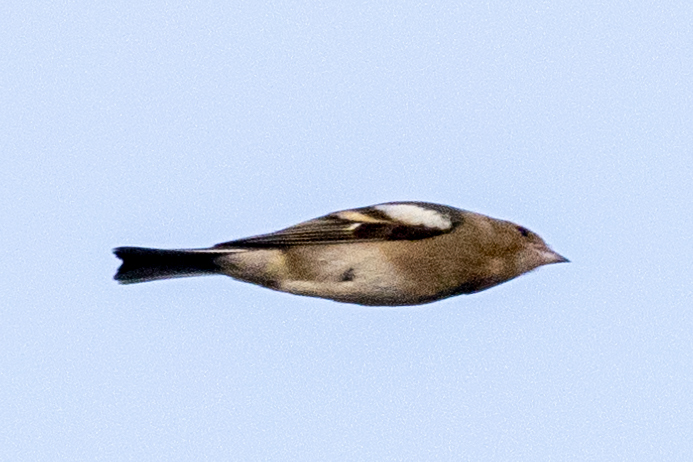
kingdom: Animalia
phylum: Chordata
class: Aves
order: Passeriformes
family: Fringillidae
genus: Fringilla
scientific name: Fringilla coelebs
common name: Common chaffinch
